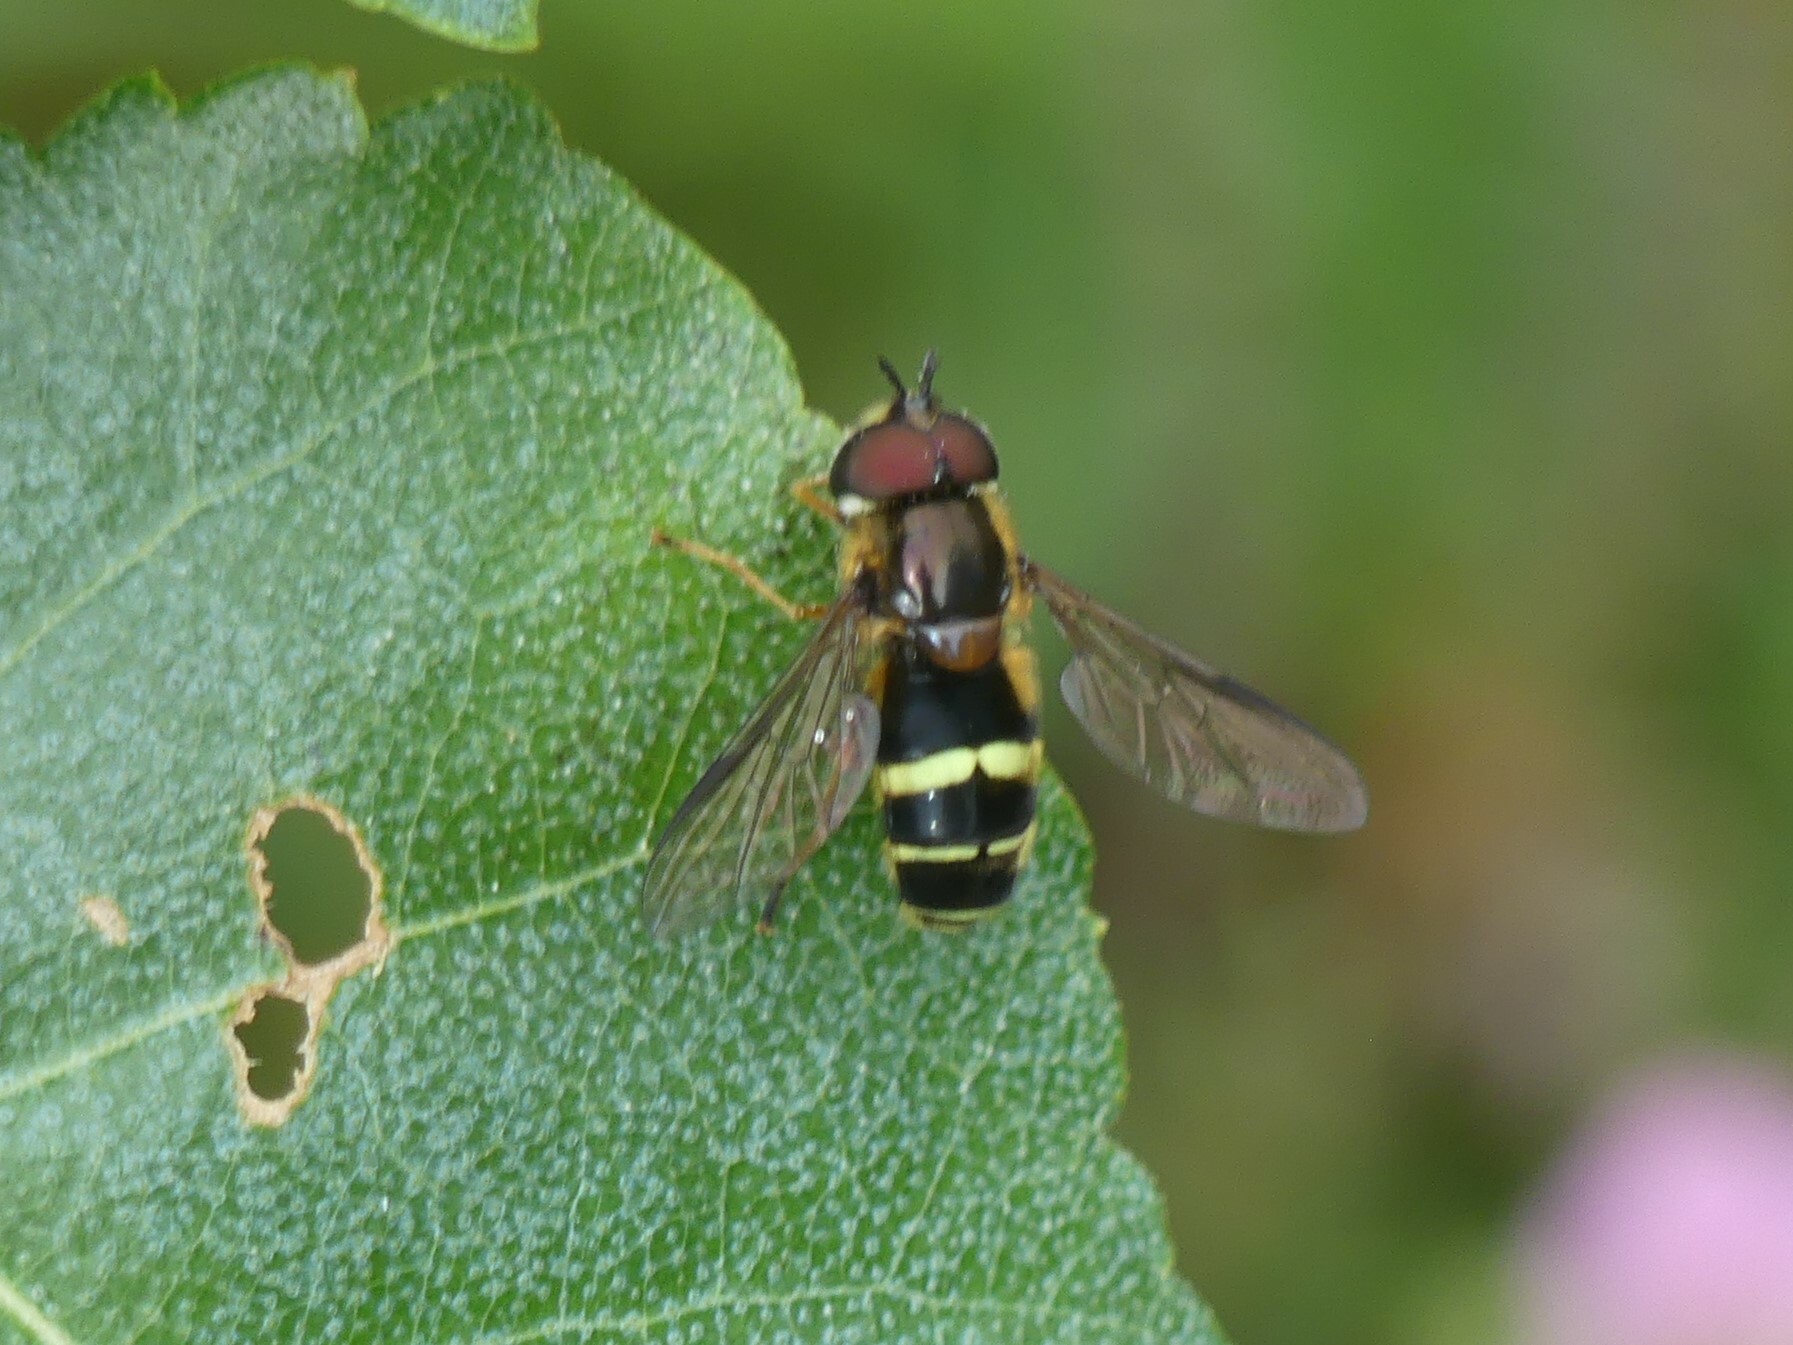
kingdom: Animalia
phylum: Arthropoda
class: Insecta
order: Diptera
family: Syrphidae
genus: Dasysyrphus
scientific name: Dasysyrphus tricinctus
